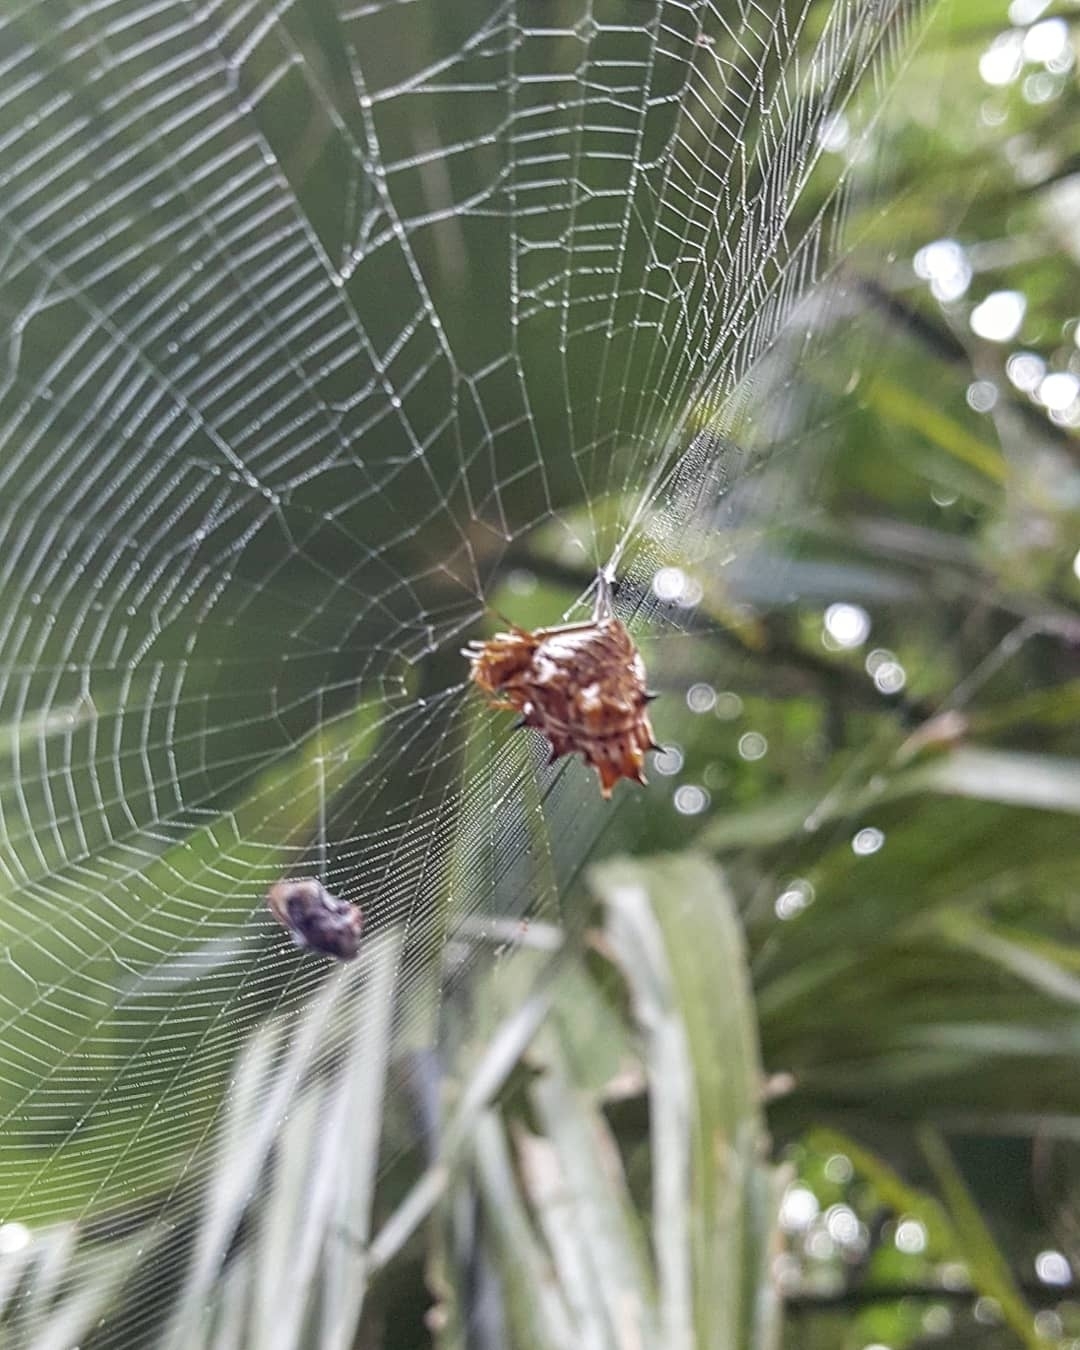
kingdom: Animalia
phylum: Arthropoda
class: Arachnida
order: Araneae
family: Araneidae
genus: Micrathena
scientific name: Micrathena gracilis
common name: Orb weavers
